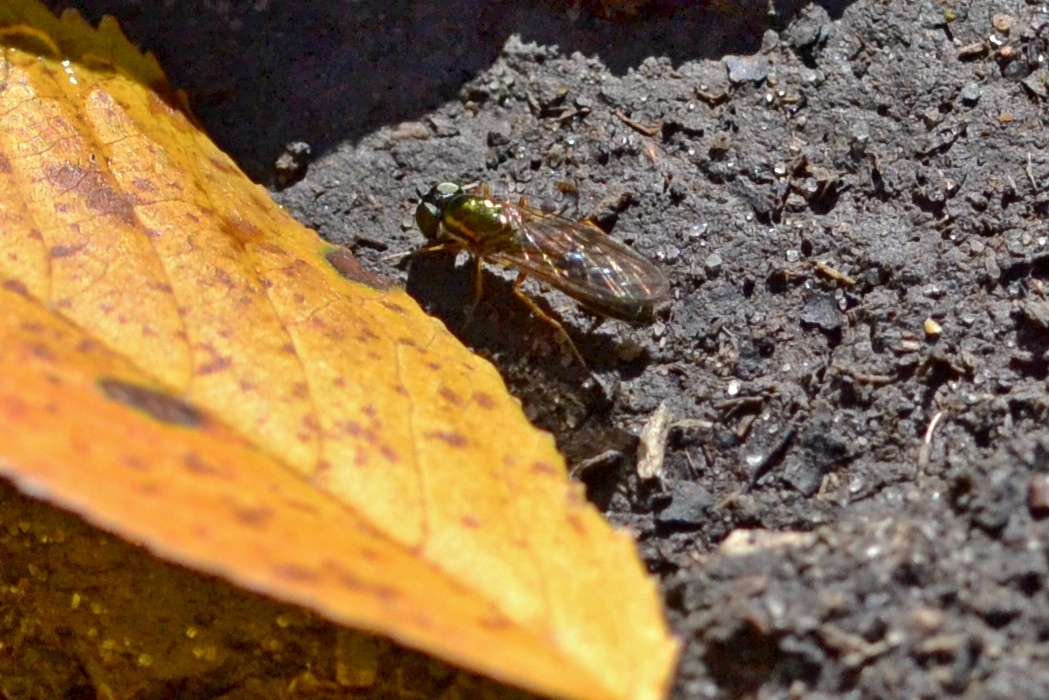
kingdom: Animalia
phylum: Arthropoda
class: Insecta
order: Diptera
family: Stratiomyidae
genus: Sargus
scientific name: Sargus bipunctatus
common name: Twin-spot centurion
